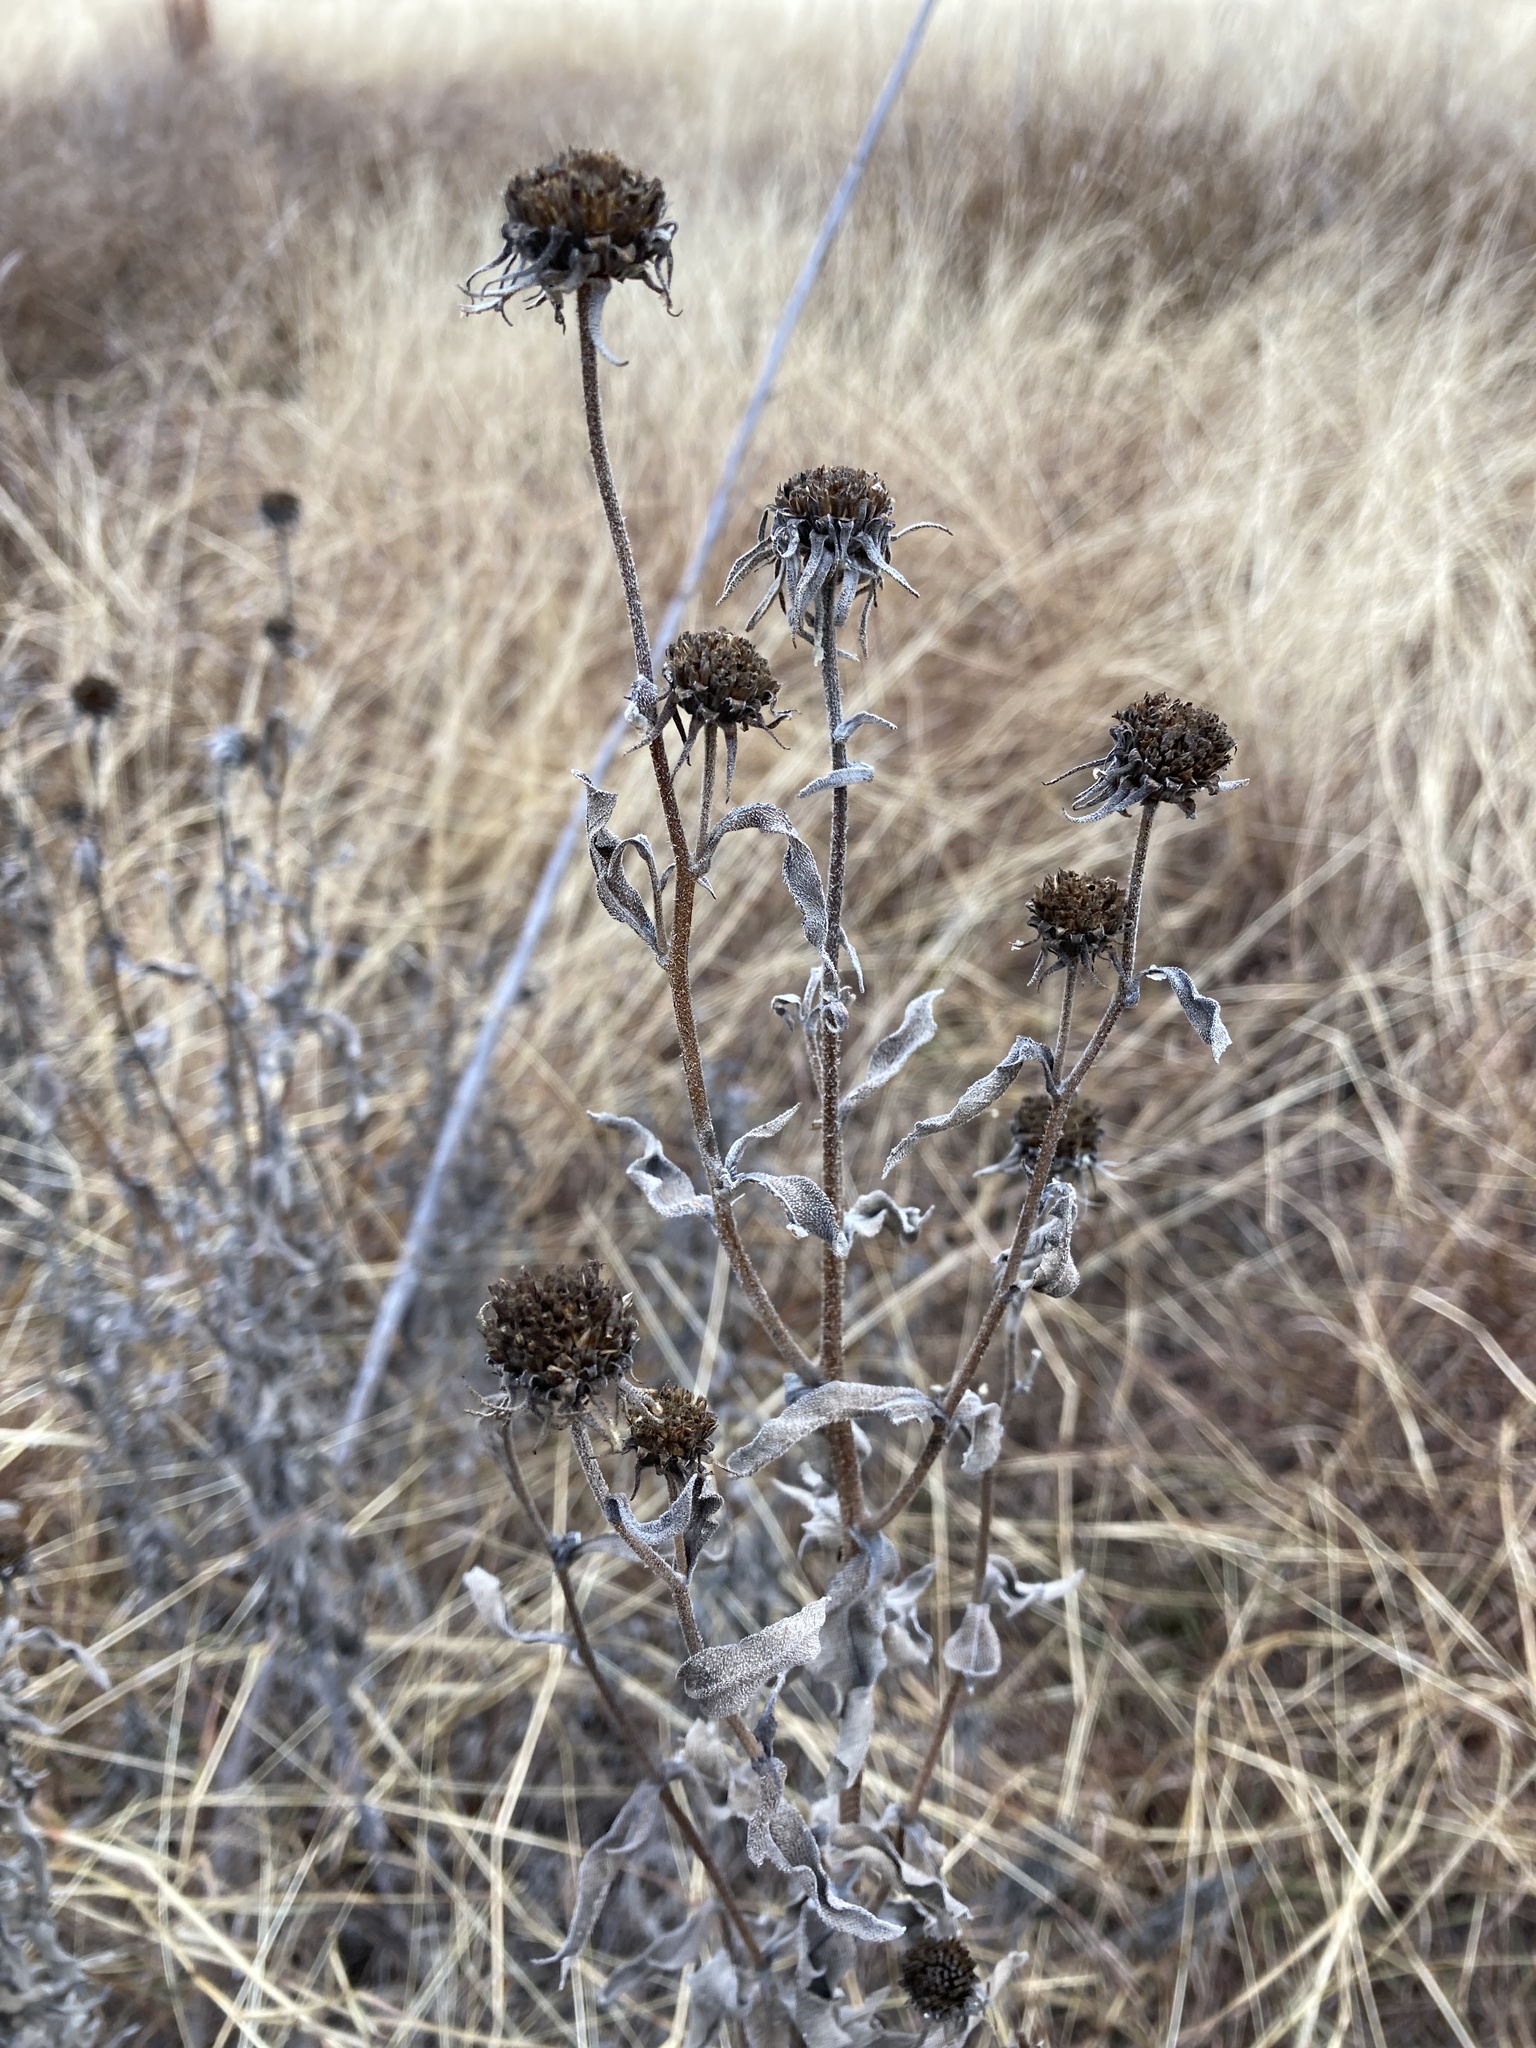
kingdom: Plantae
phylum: Tracheophyta
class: Magnoliopsida
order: Asterales
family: Asteraceae
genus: Helianthus
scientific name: Helianthus maximiliani
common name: Maximilian's sunflower
